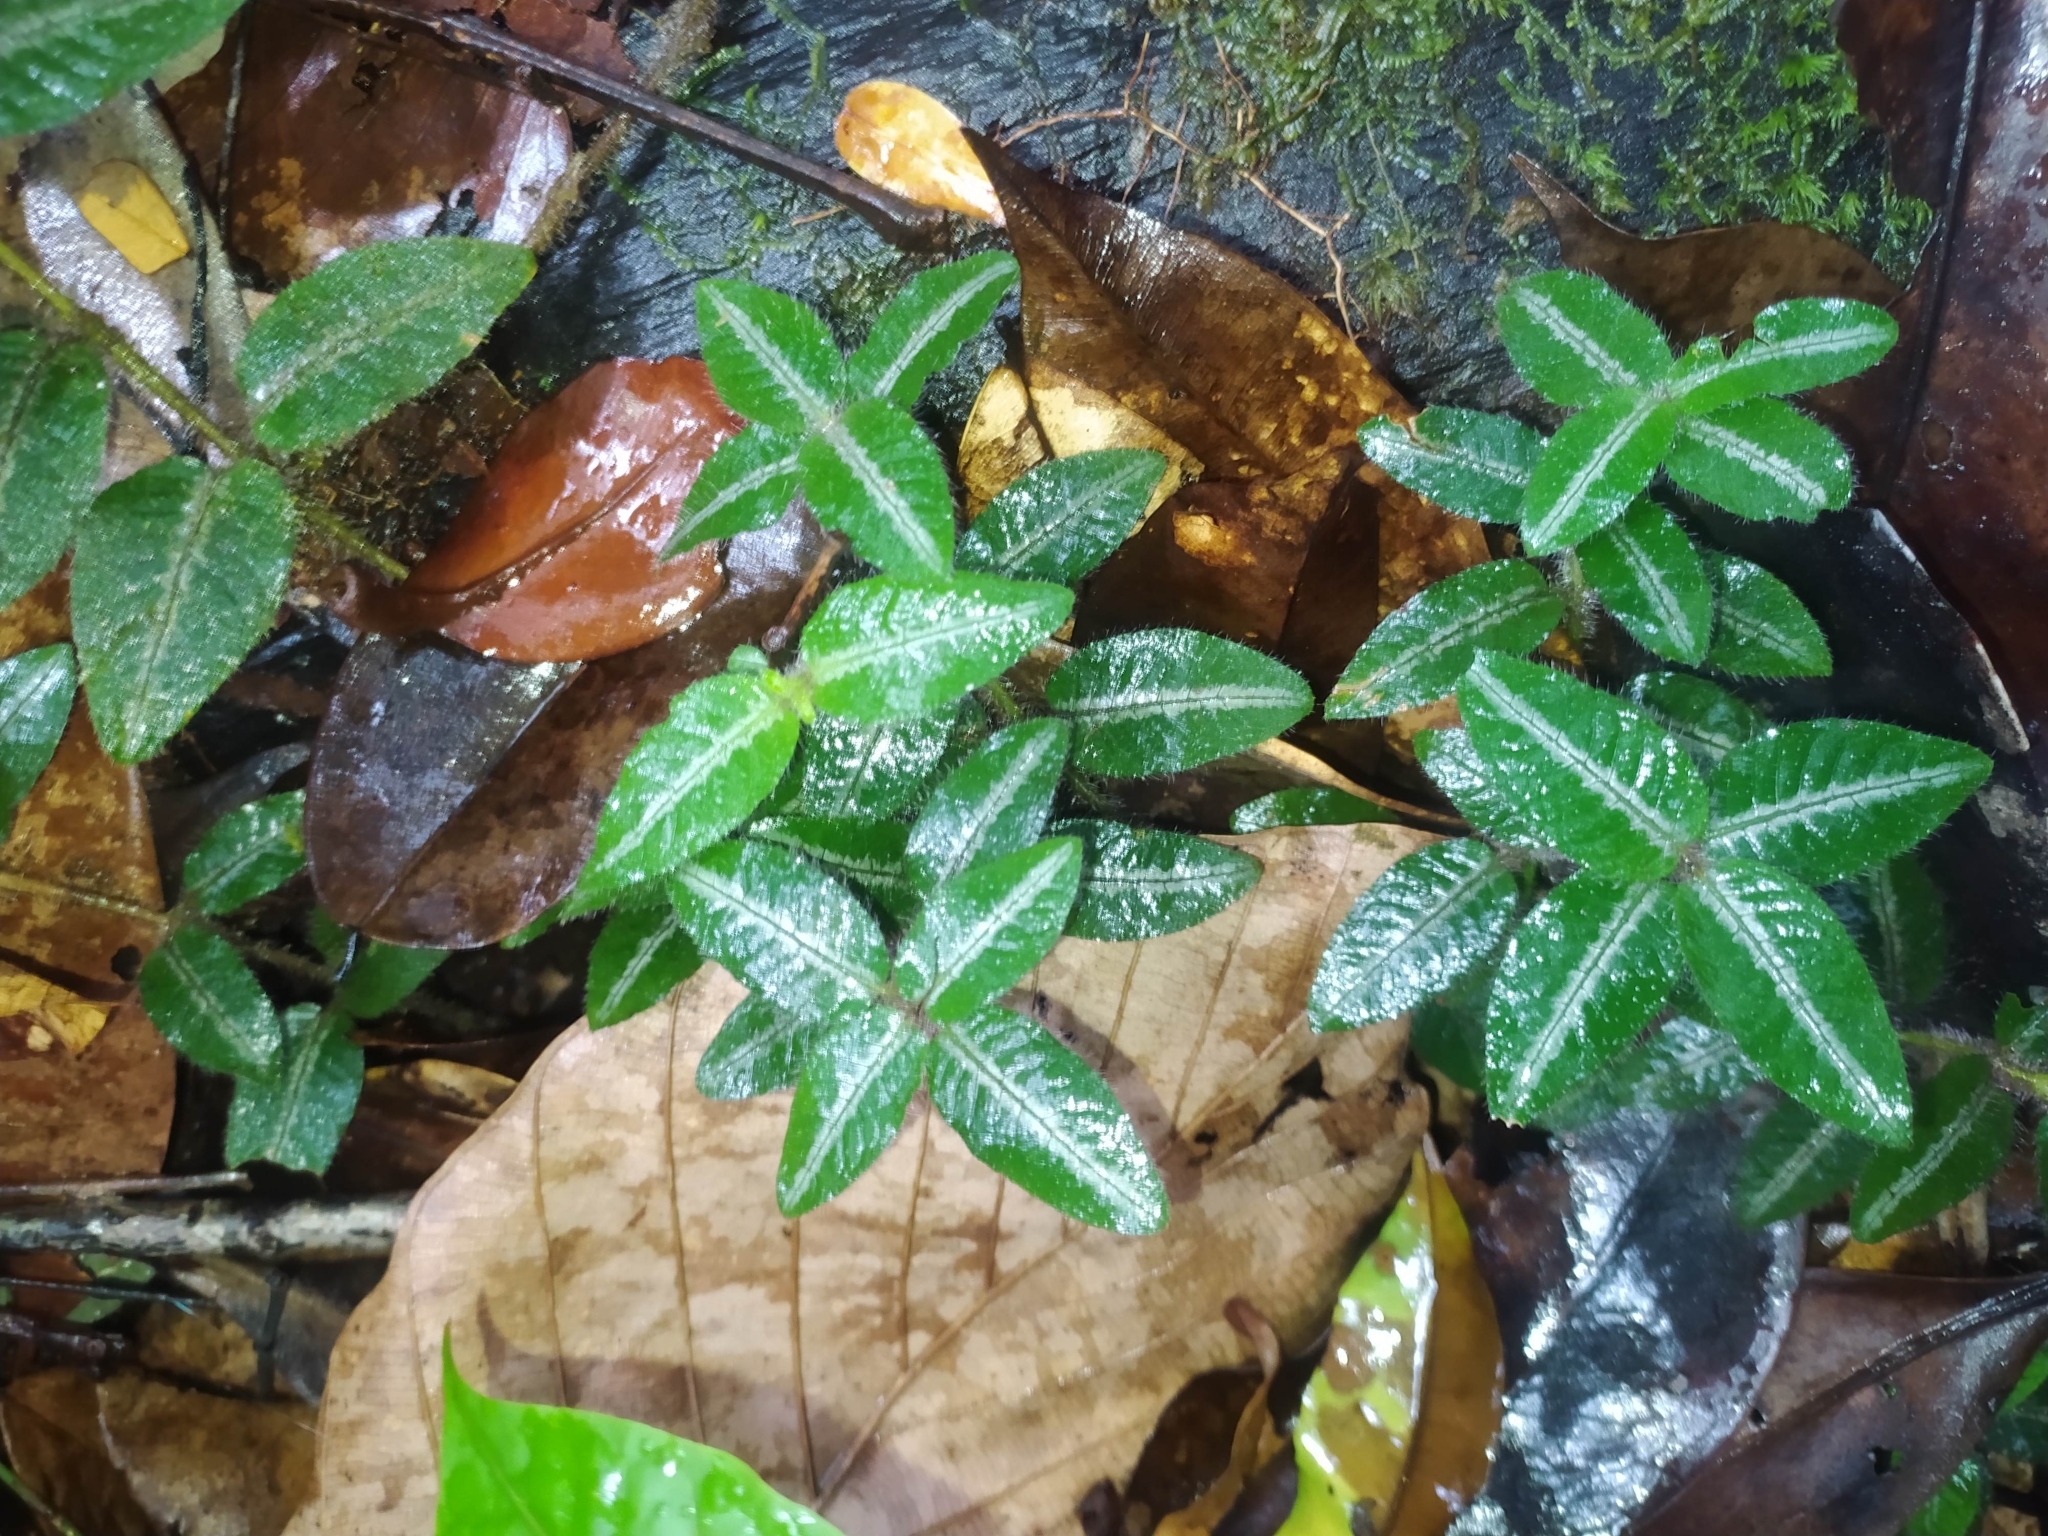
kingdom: Plantae
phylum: Tracheophyta
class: Magnoliopsida
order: Gentianales
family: Rubiaceae
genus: Palicourea
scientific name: Palicourea debilis
